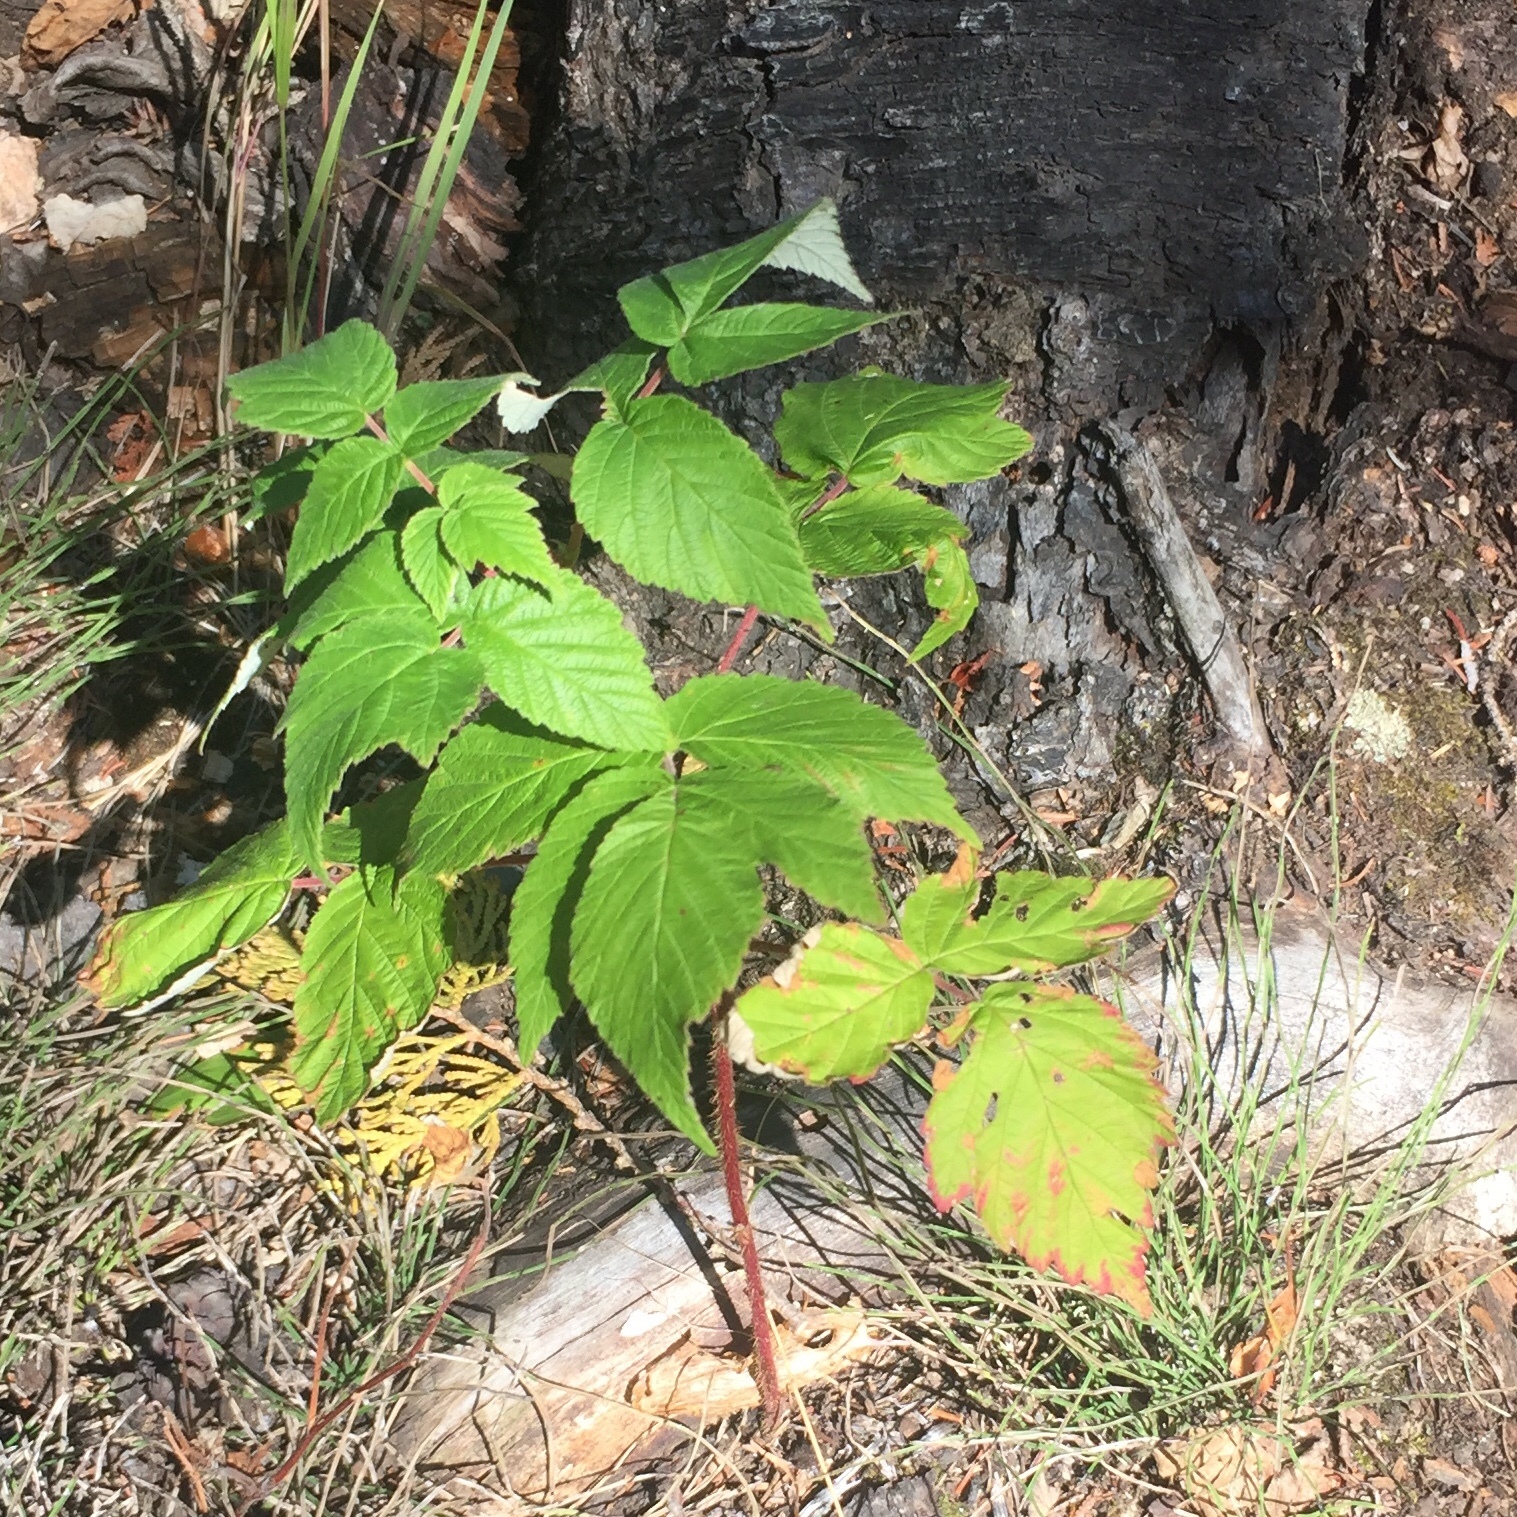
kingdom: Plantae
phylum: Tracheophyta
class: Magnoliopsida
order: Rosales
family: Rosaceae
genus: Rubus
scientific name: Rubus idaeus
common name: Raspberry
